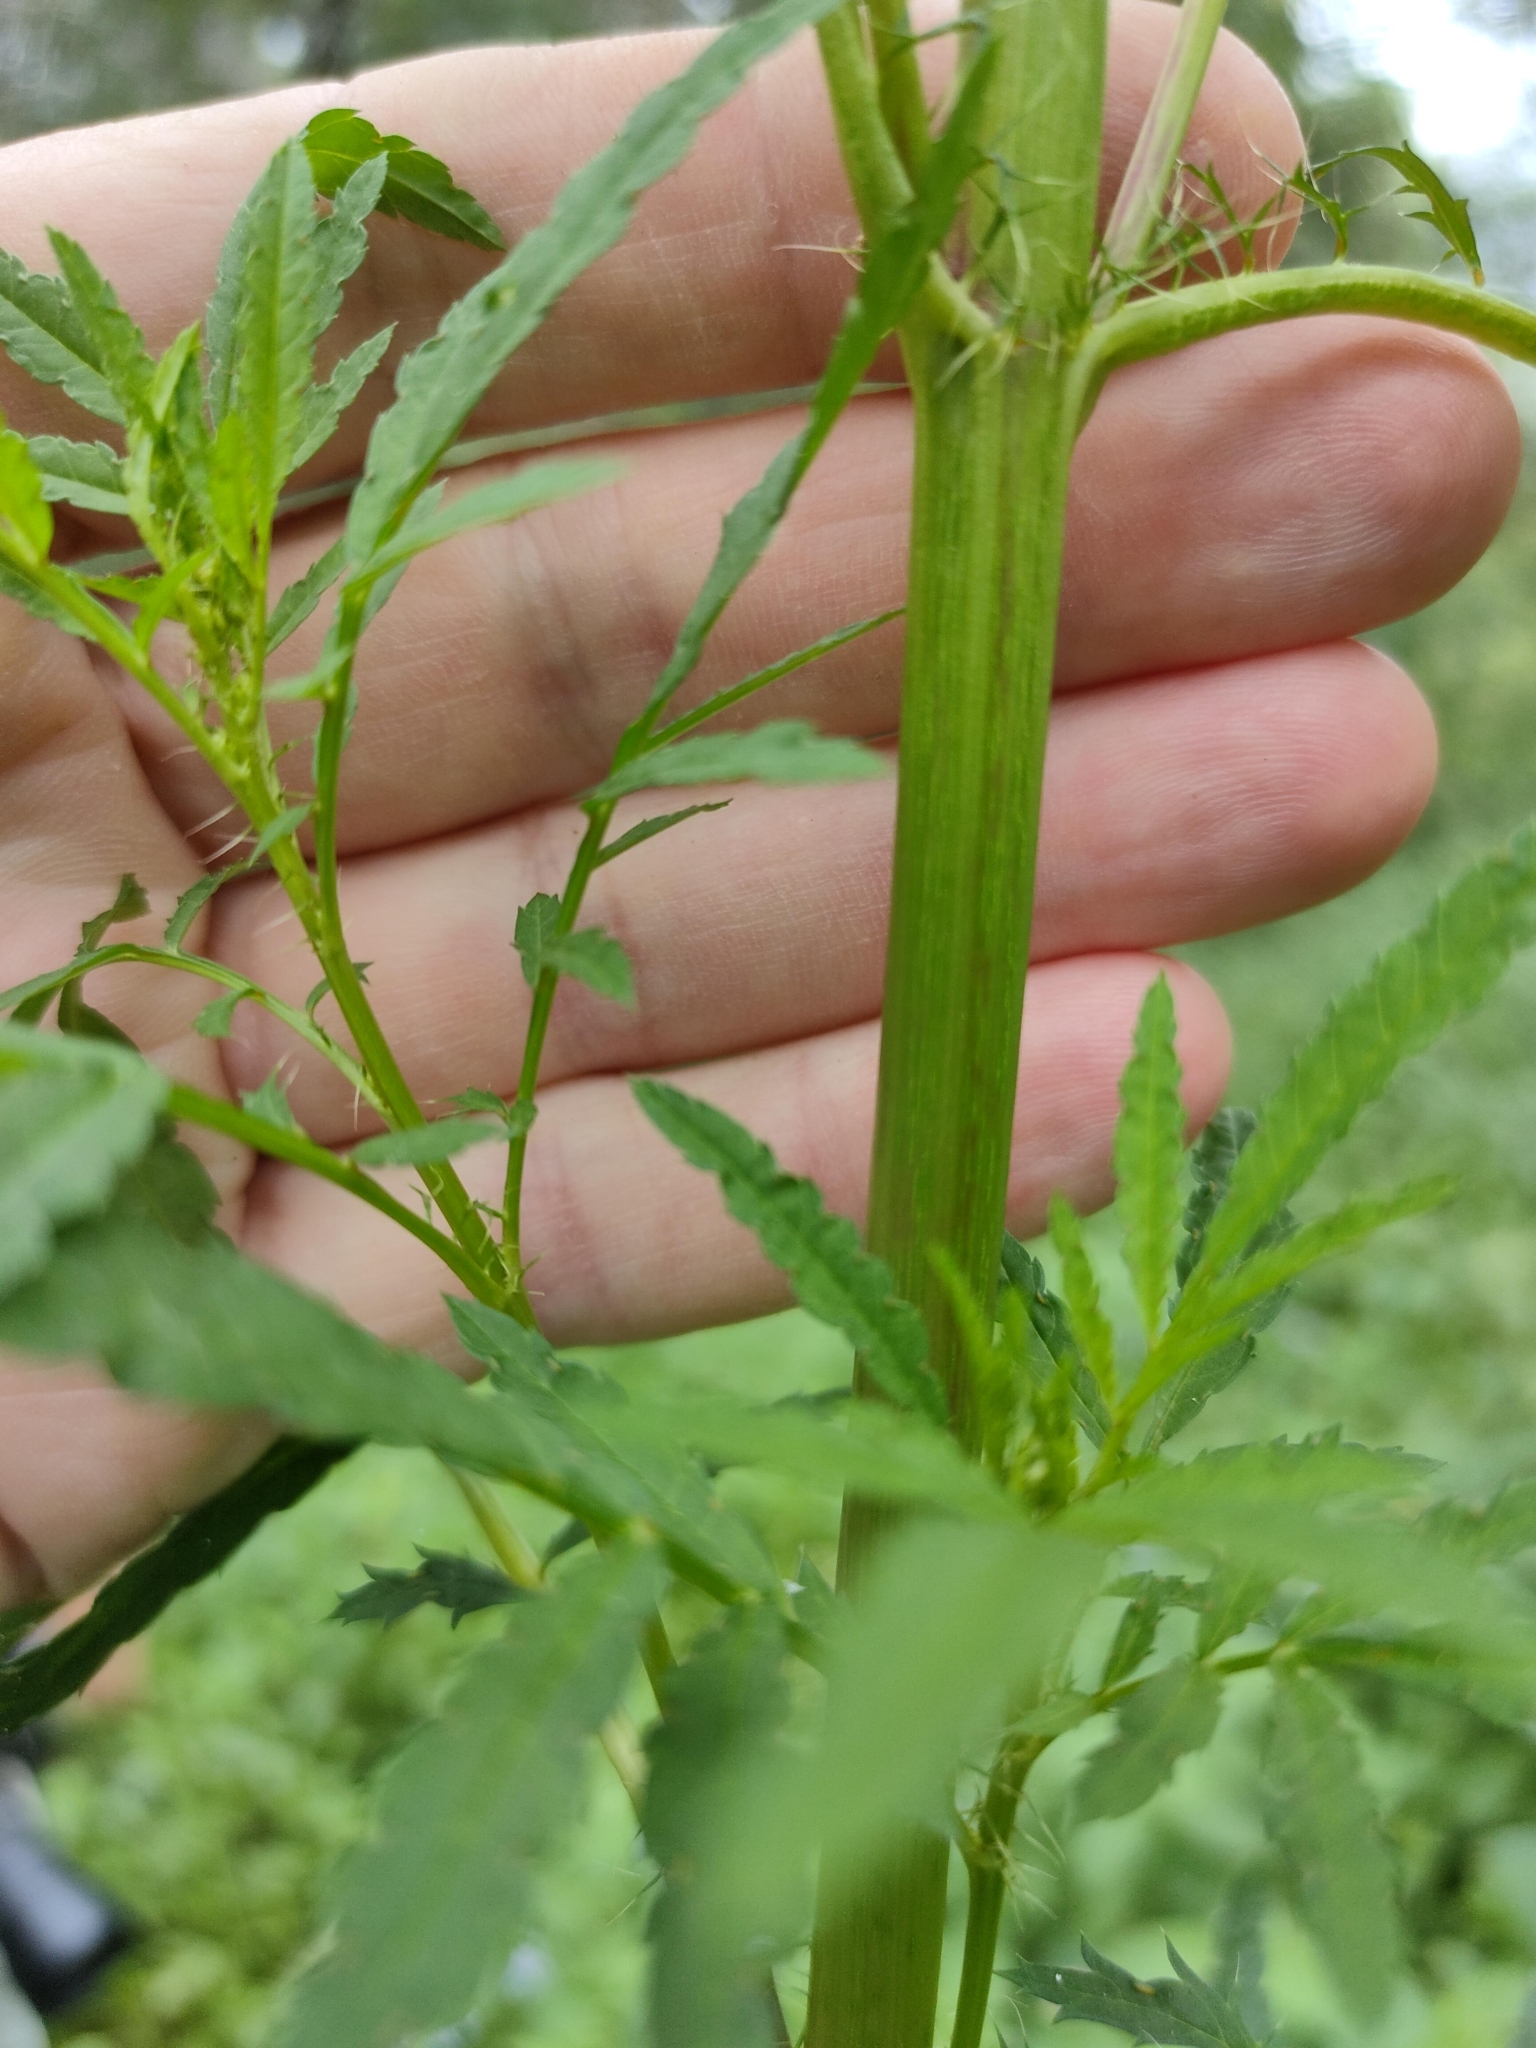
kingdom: Plantae
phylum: Tracheophyta
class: Magnoliopsida
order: Asterales
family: Asteraceae
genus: Tagetes
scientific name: Tagetes minuta
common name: Muster john henry
